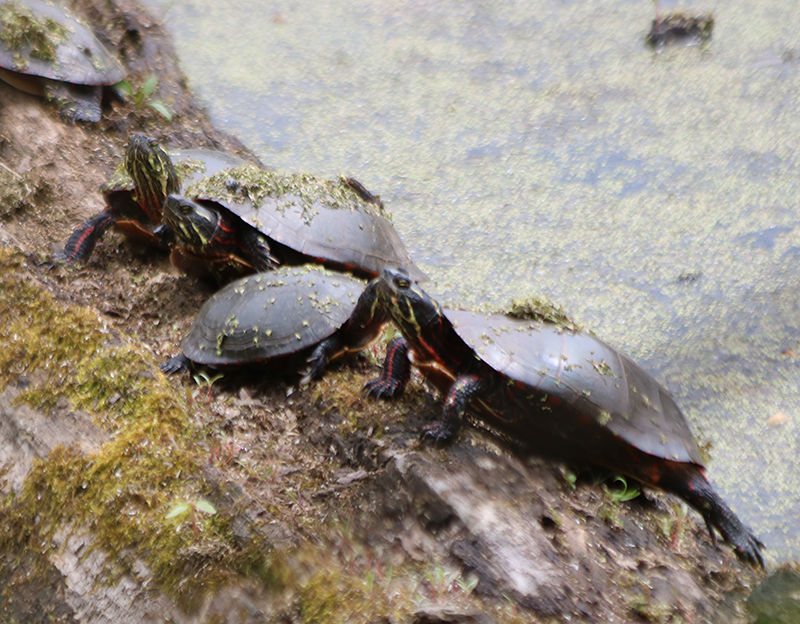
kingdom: Animalia
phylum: Chordata
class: Testudines
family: Emydidae
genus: Chrysemys
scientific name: Chrysemys picta
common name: Painted turtle
